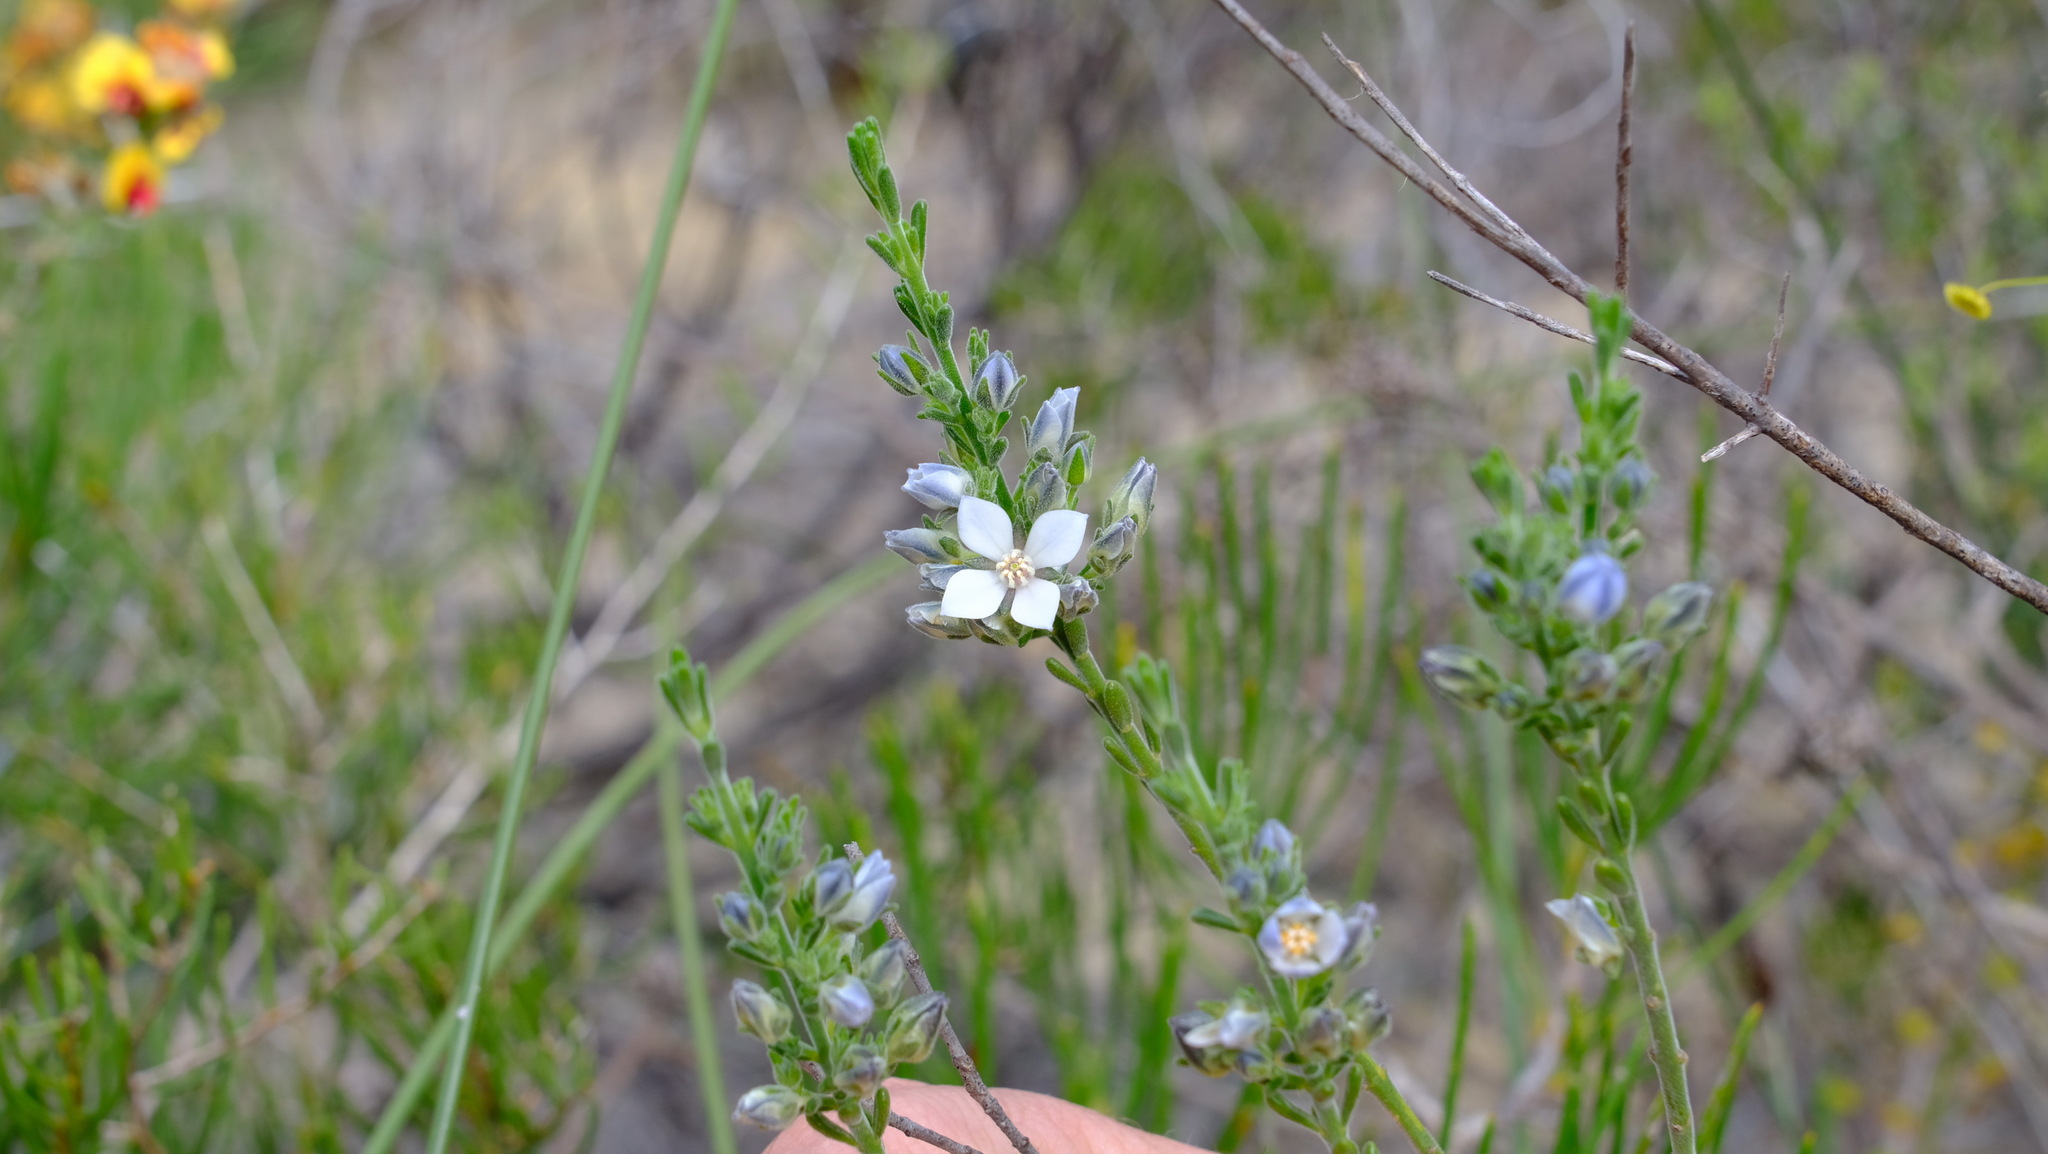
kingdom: Plantae
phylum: Tracheophyta
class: Magnoliopsida
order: Sapindales
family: Rutaceae
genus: Cyanothamnus
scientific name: Cyanothamnus coerulescens
